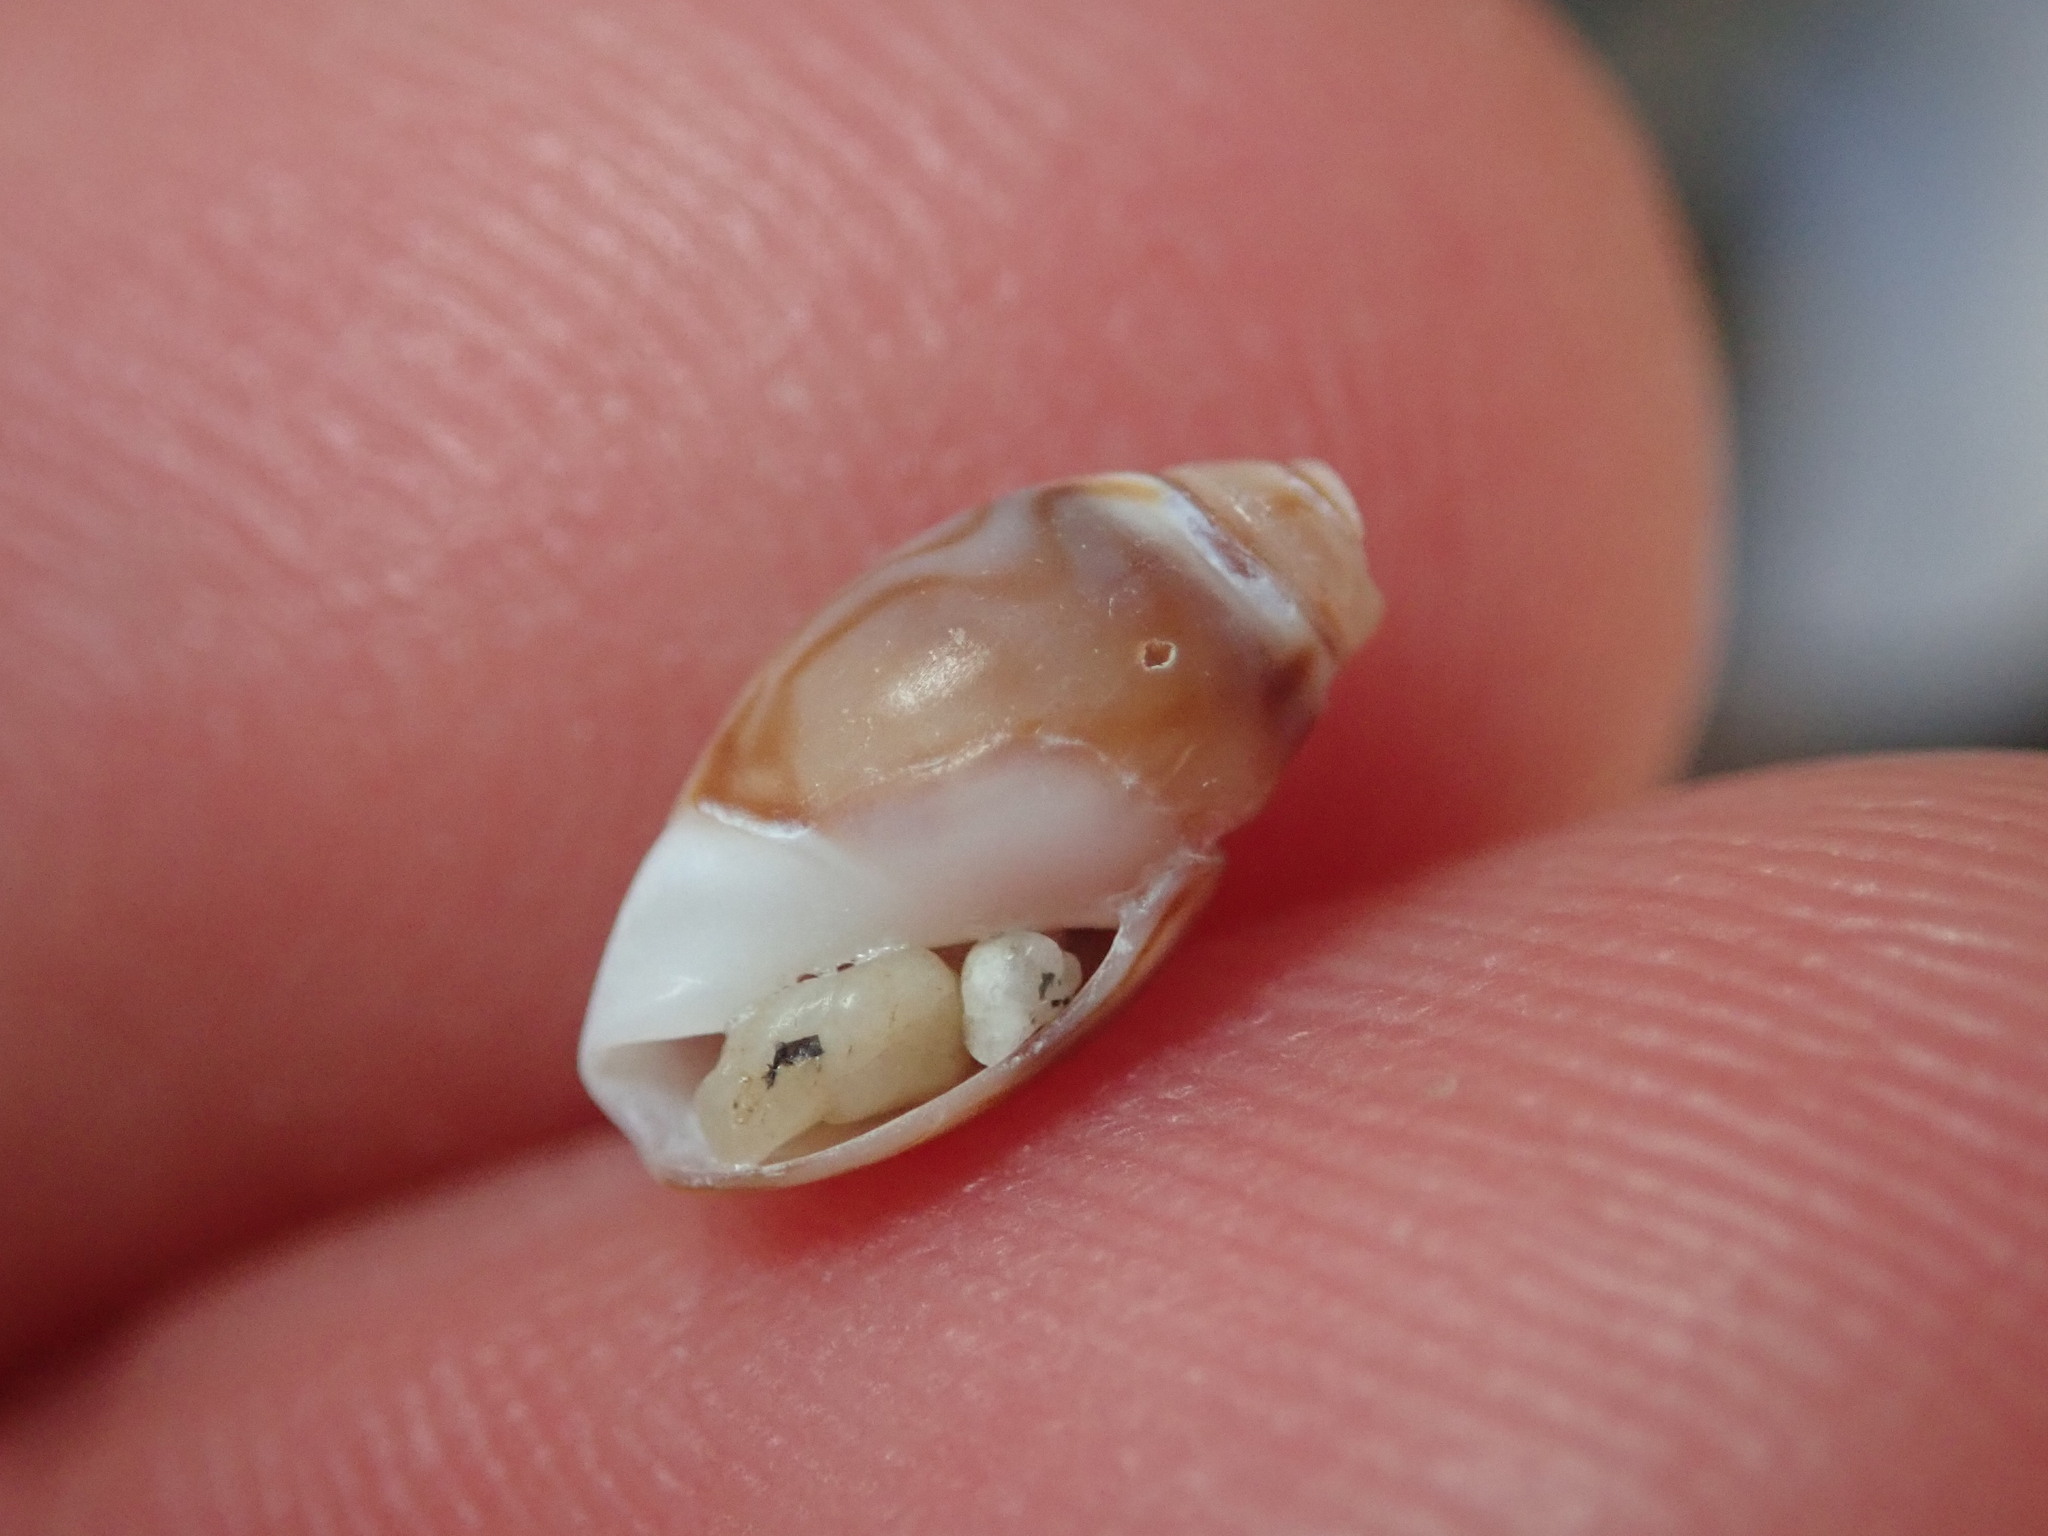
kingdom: Animalia
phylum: Mollusca
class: Gastropoda
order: Neogastropoda
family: Olividae
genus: Callianax
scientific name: Callianax alectona
